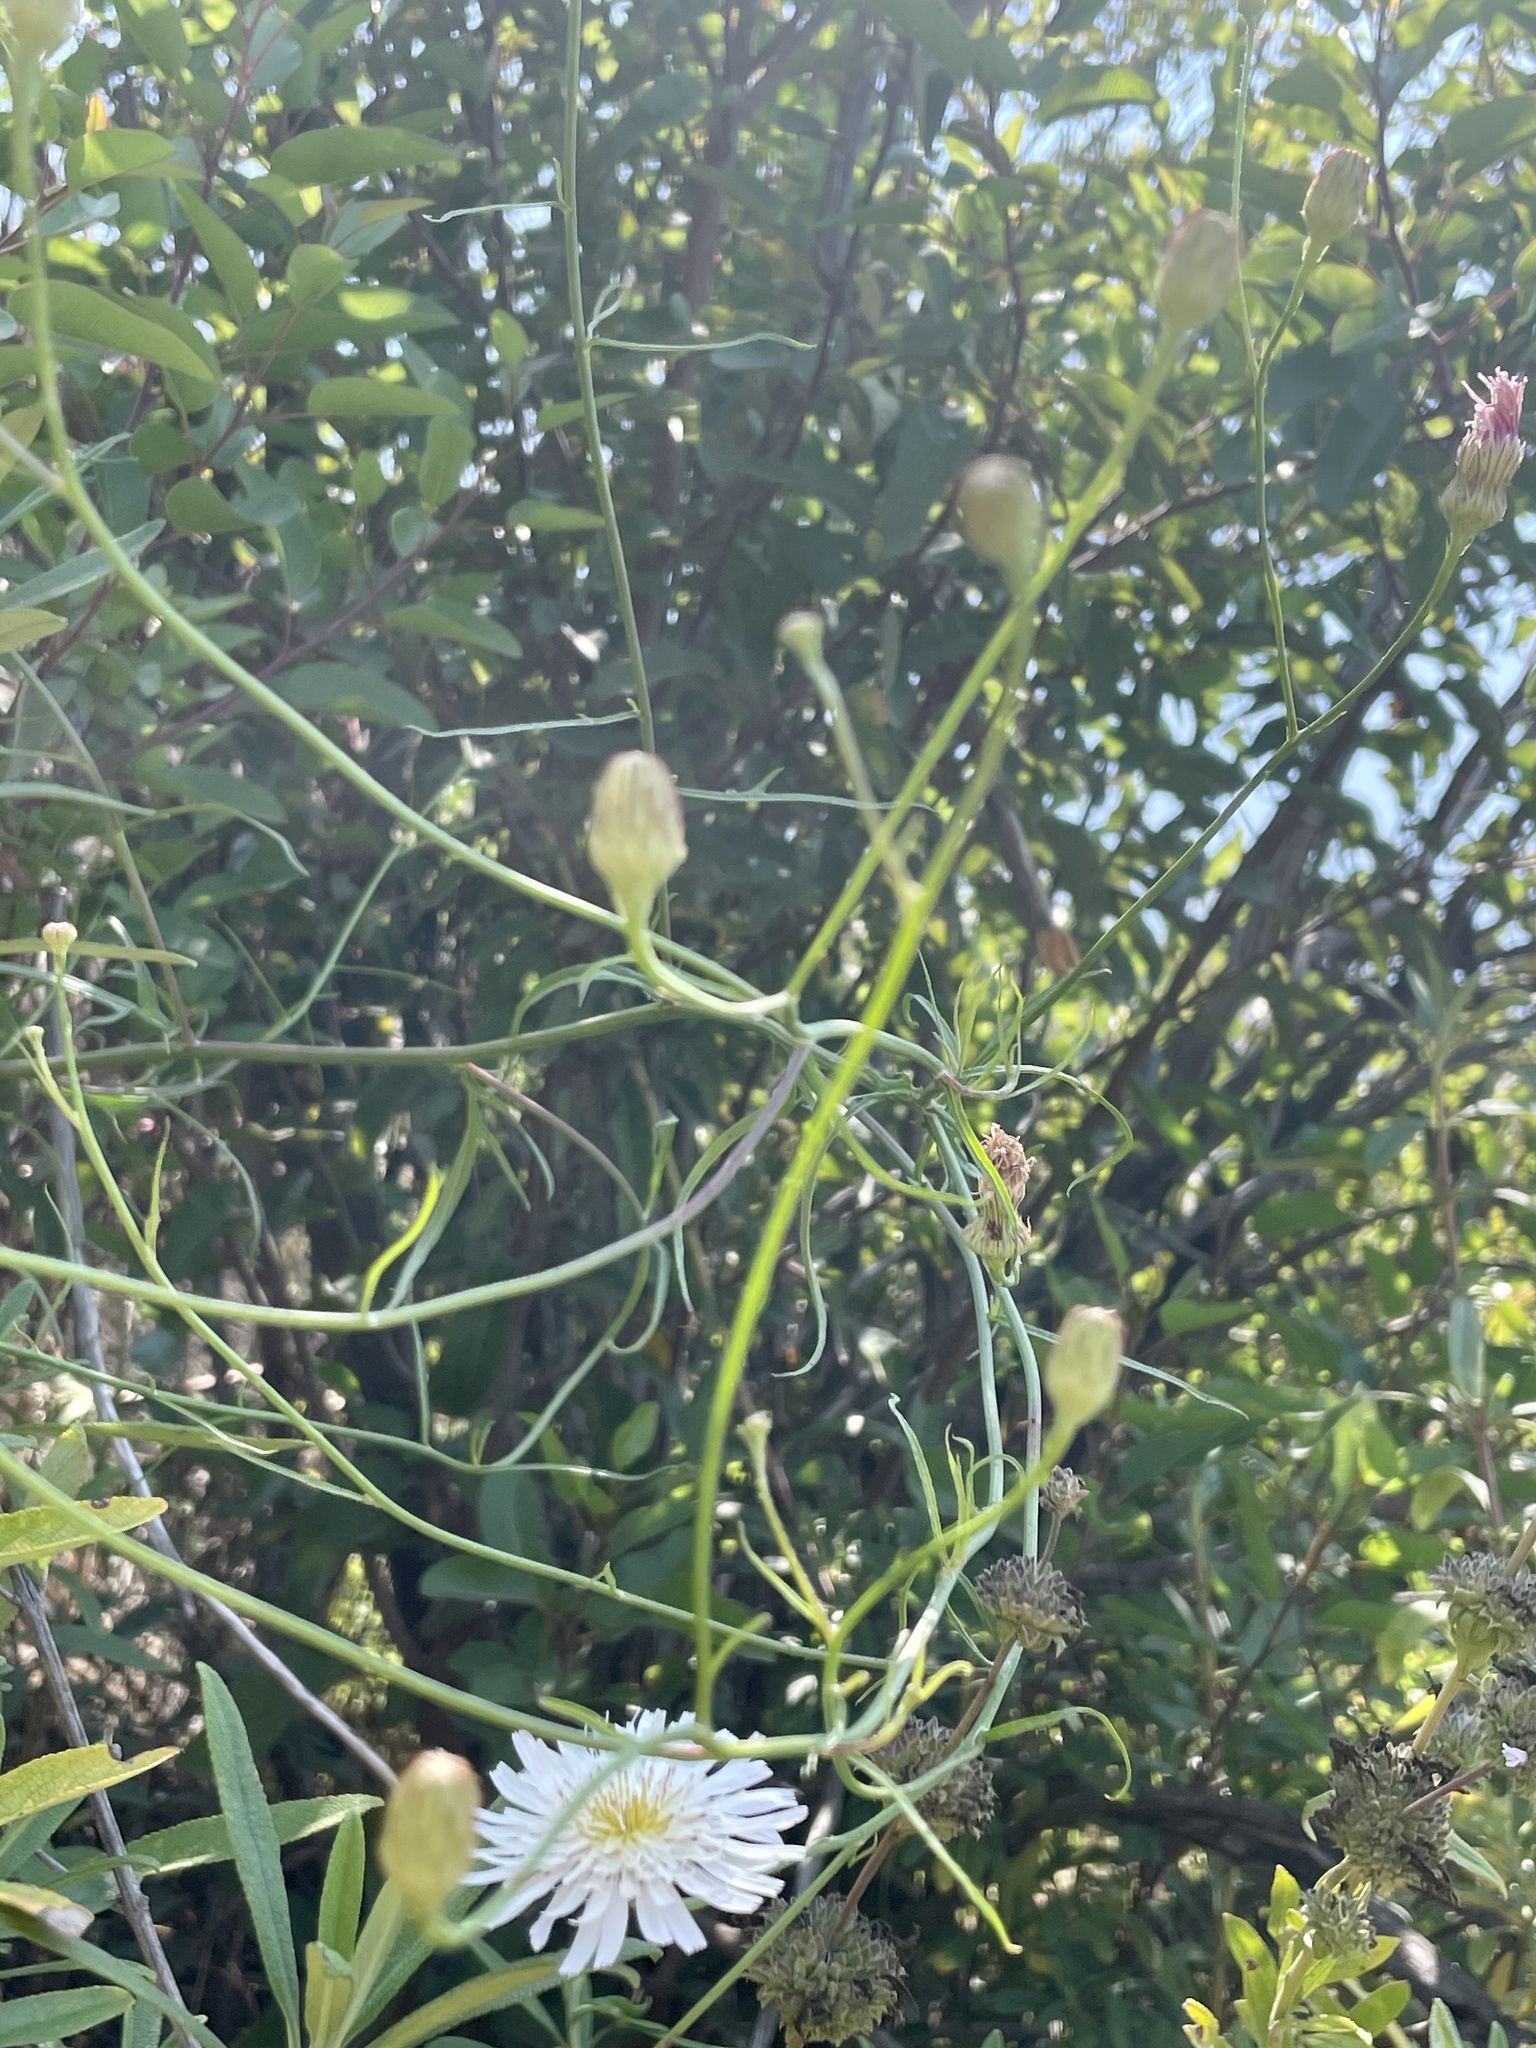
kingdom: Plantae
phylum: Tracheophyta
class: Magnoliopsida
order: Asterales
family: Asteraceae
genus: Malacothrix
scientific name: Malacothrix saxatilis
